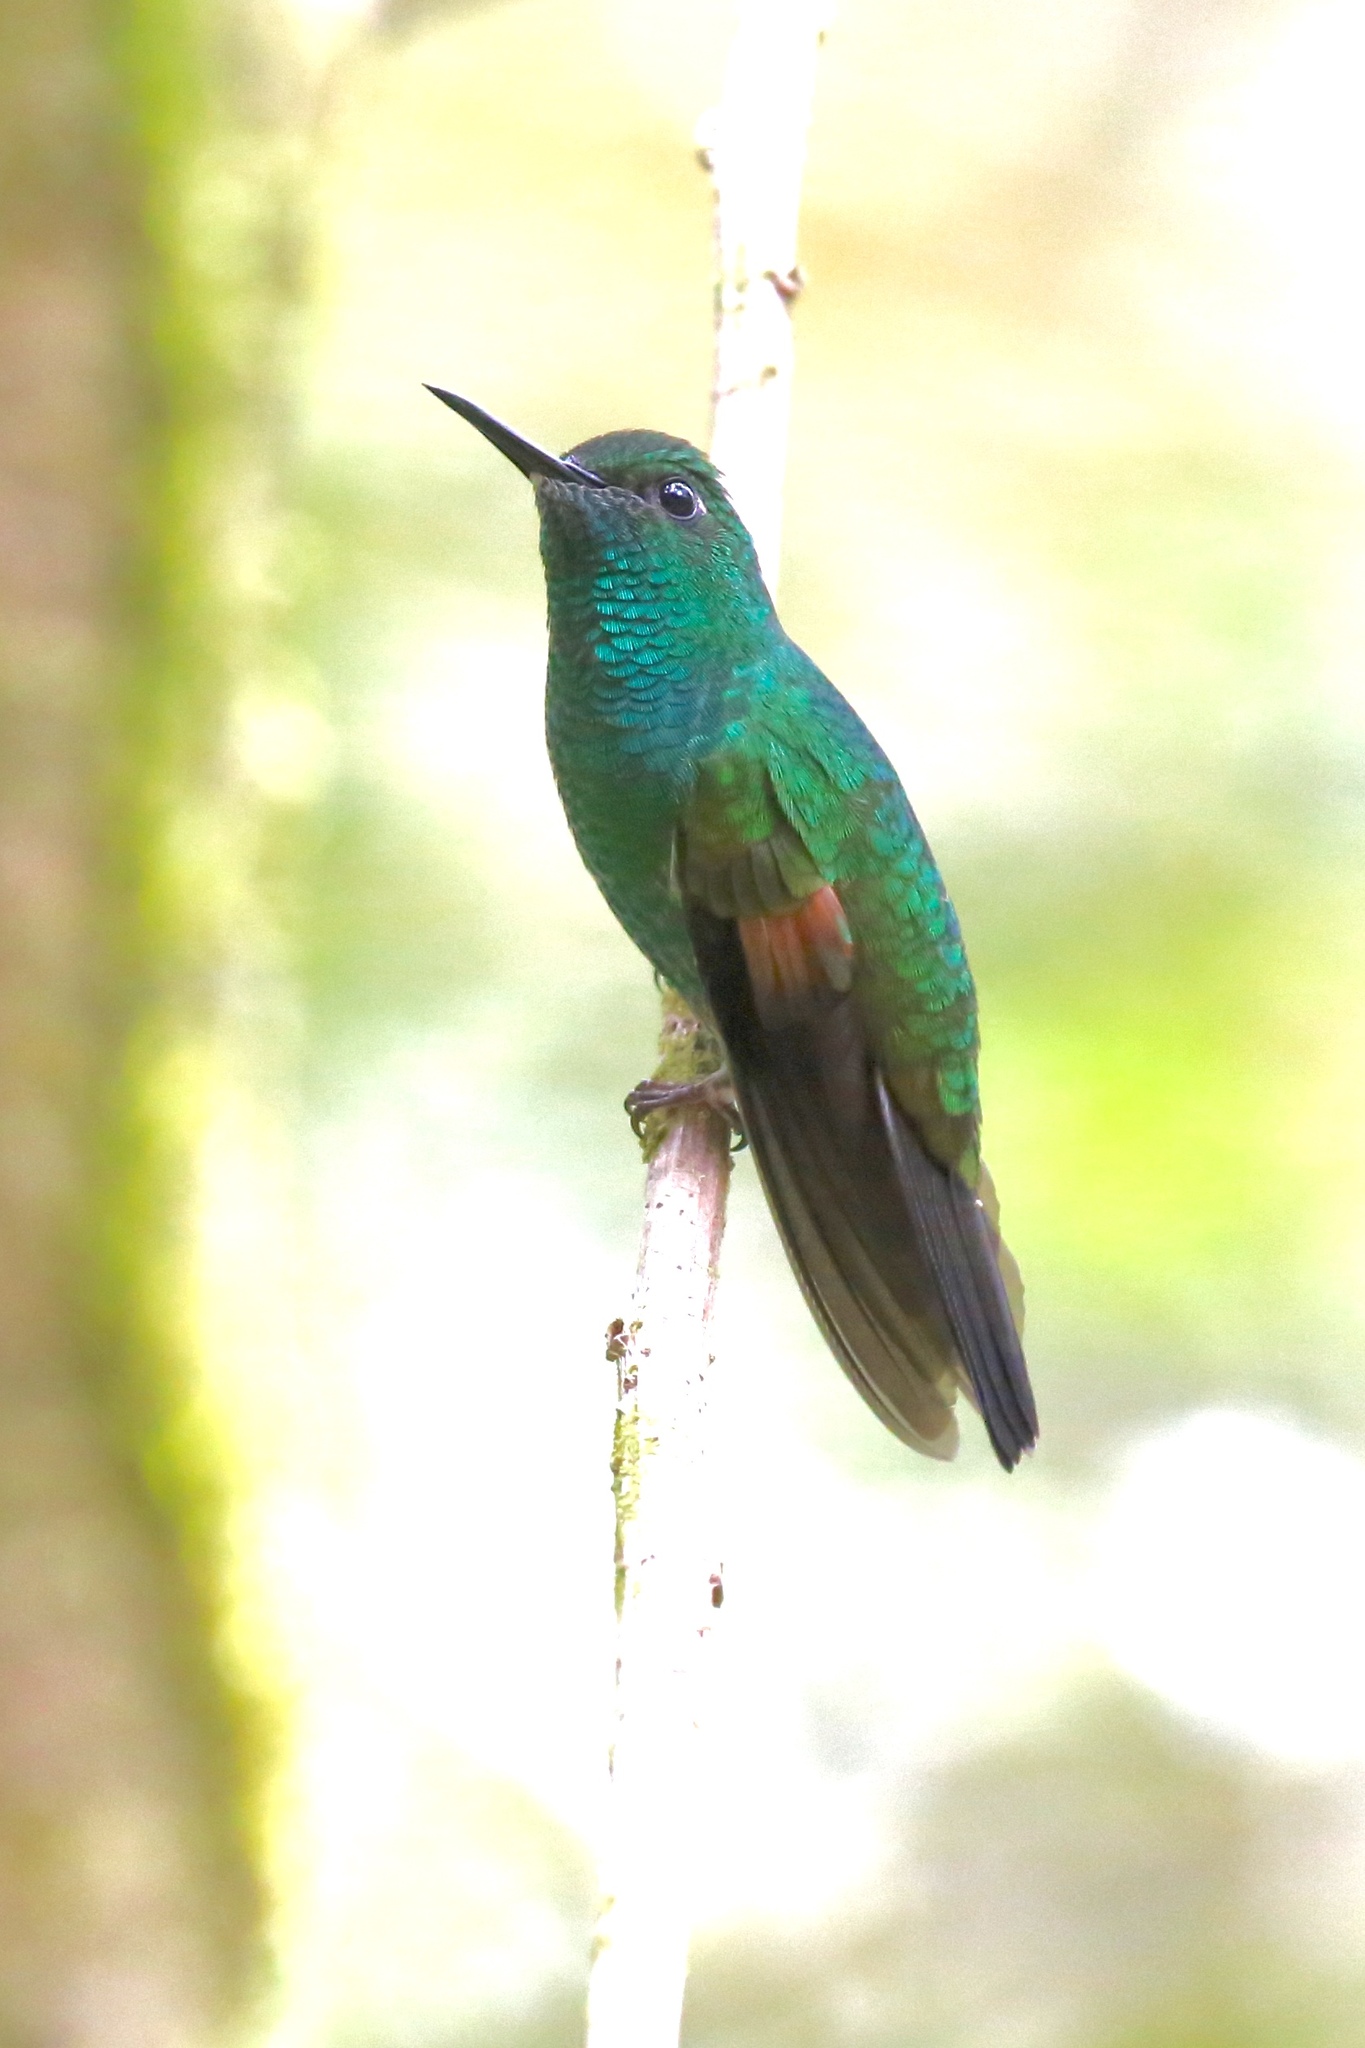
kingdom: Animalia
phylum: Chordata
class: Aves
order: Apodiformes
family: Trochilidae
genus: Eupherusa
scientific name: Eupherusa eximia
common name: Stripe-tailed hummingbird
